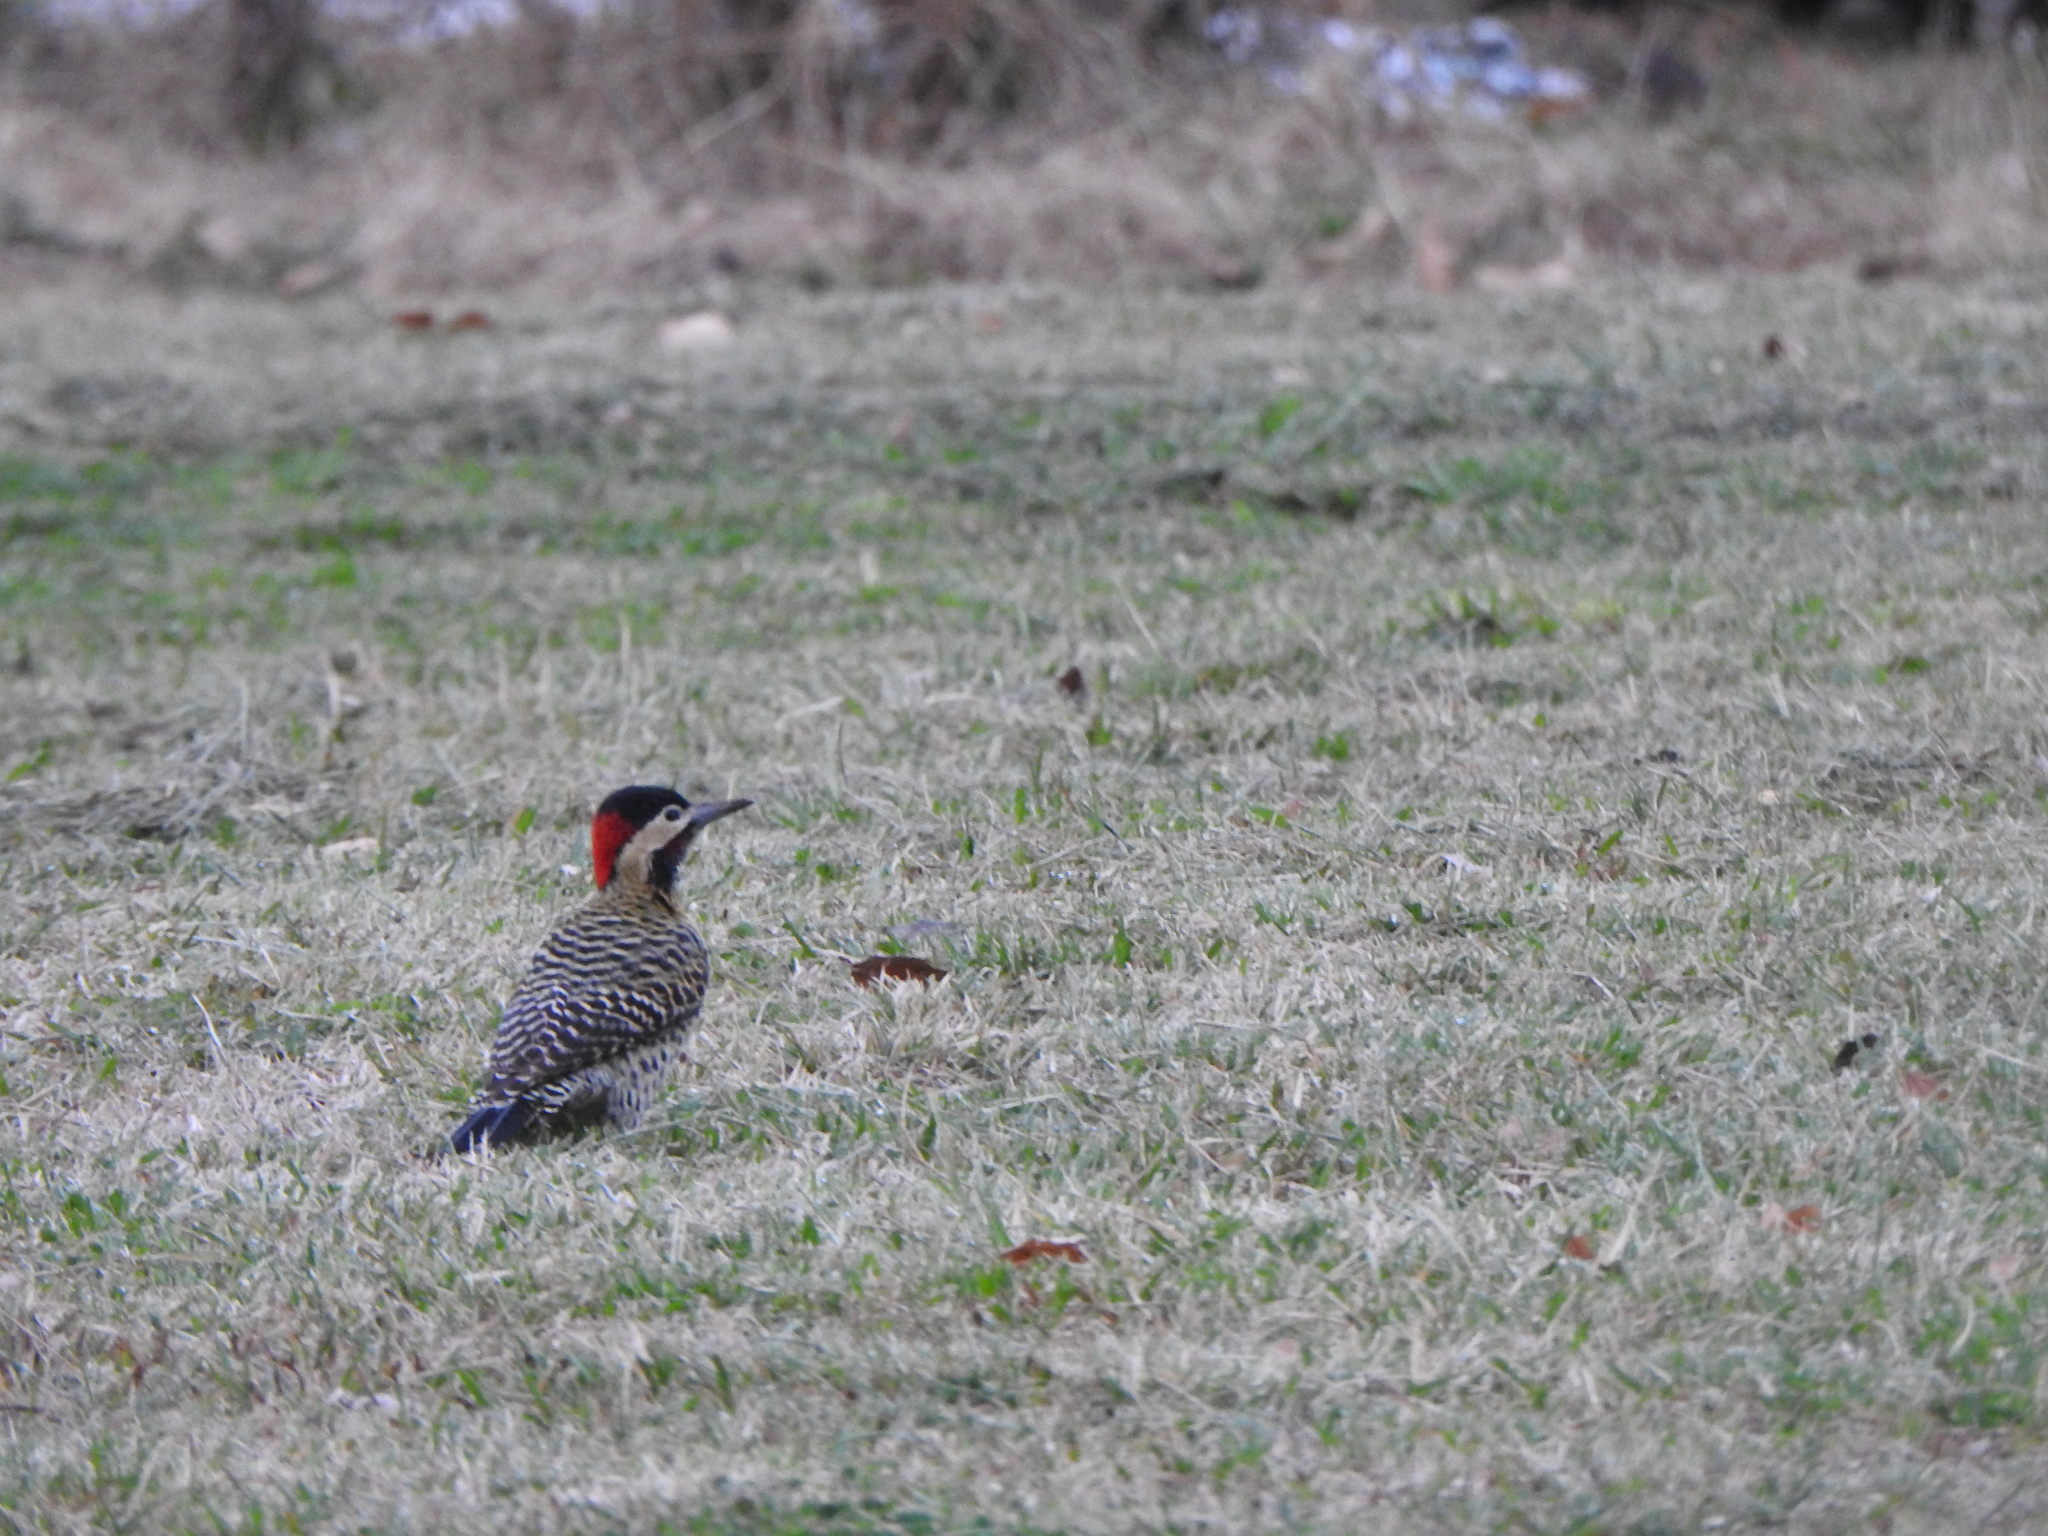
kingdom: Animalia
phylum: Chordata
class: Aves
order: Piciformes
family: Picidae
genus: Colaptes
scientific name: Colaptes melanochloros
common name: Green-barred woodpecker
